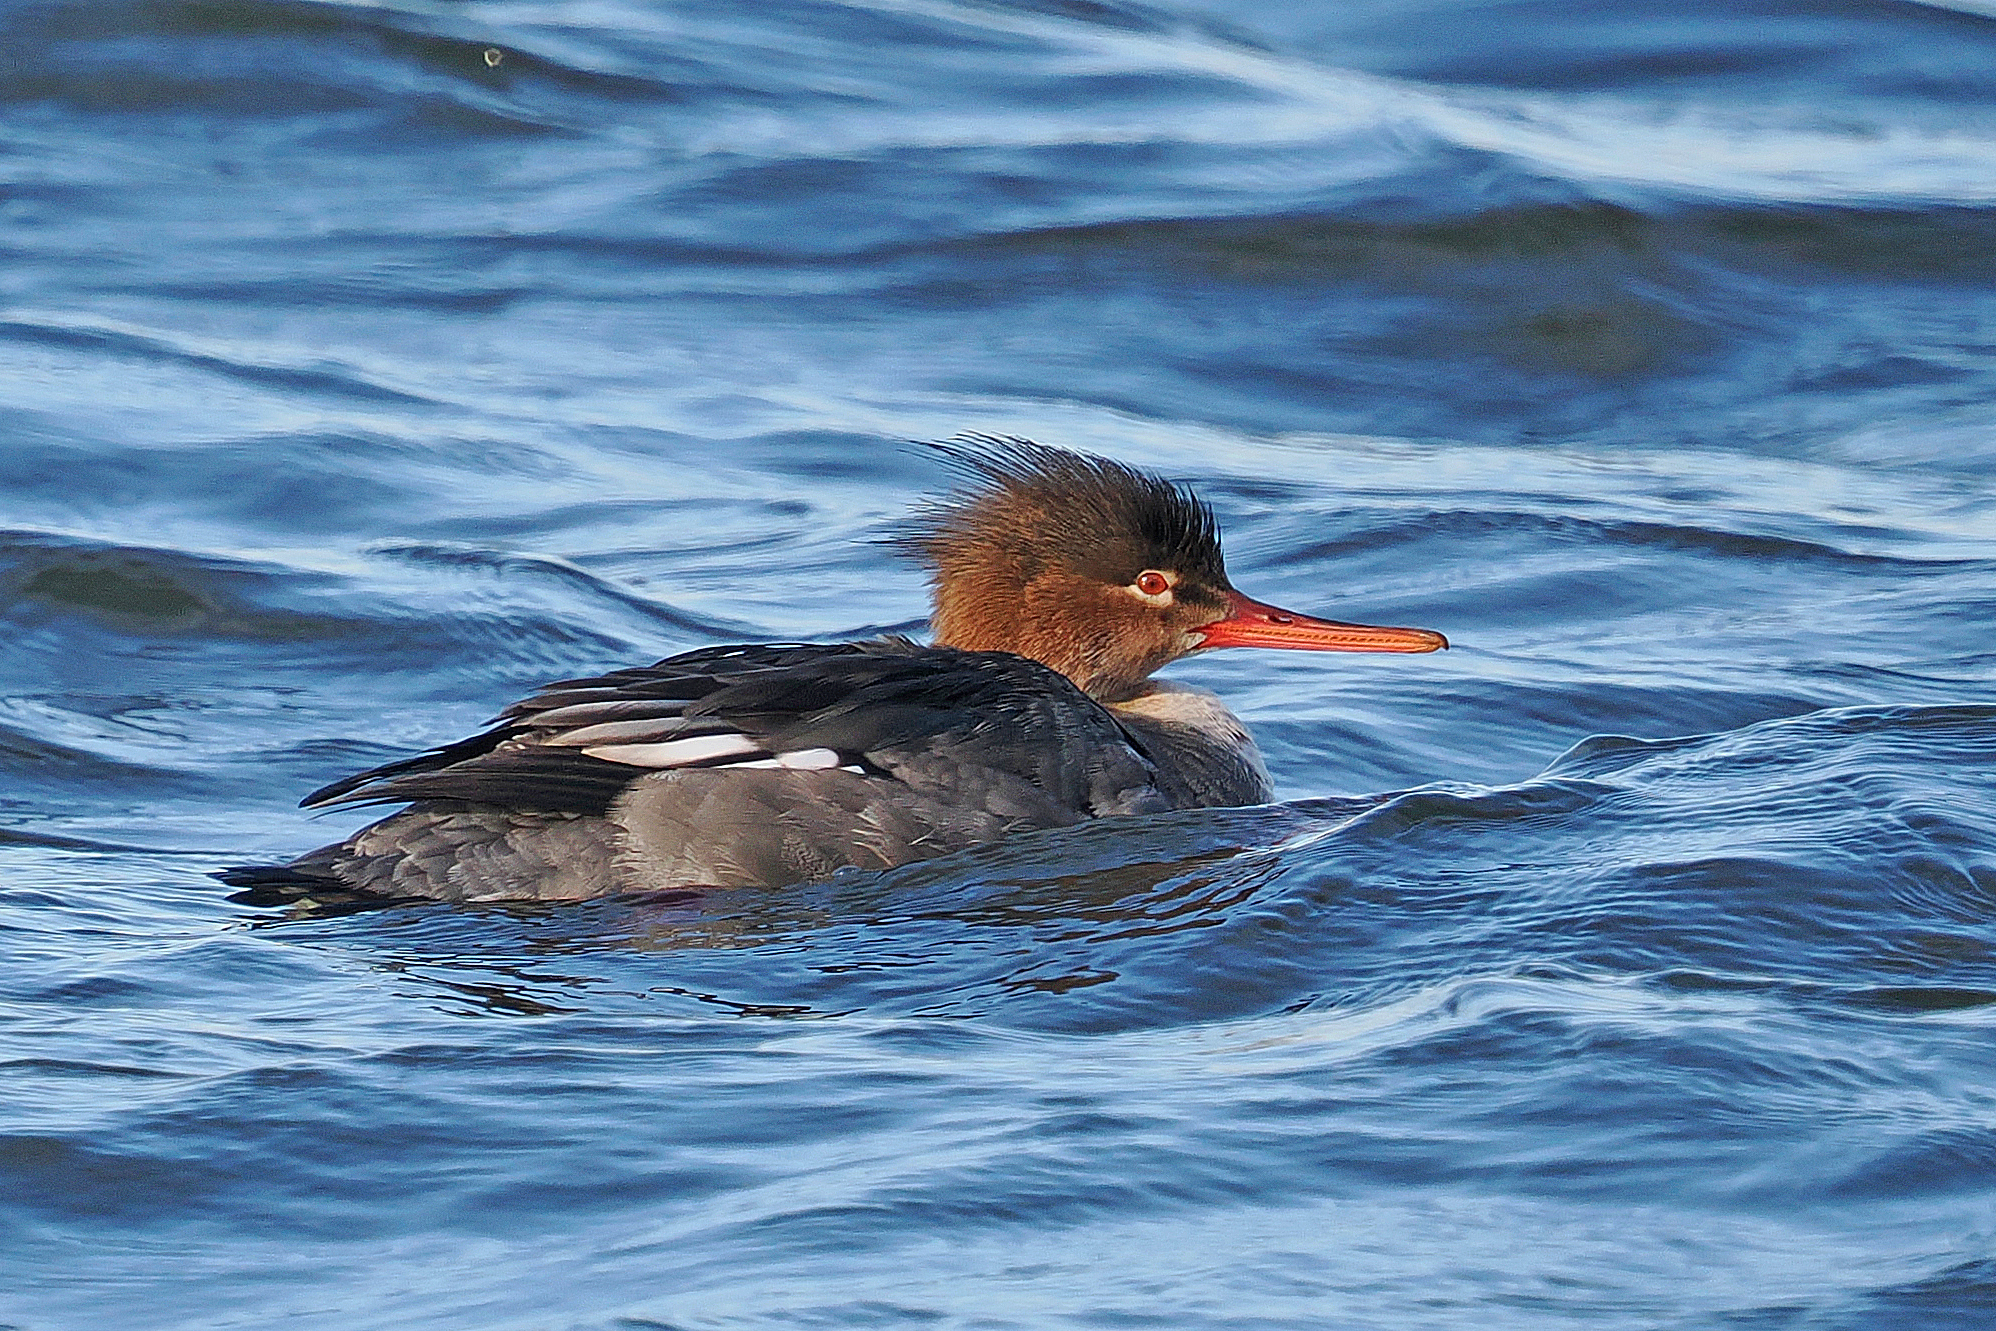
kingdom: Animalia
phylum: Chordata
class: Aves
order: Anseriformes
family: Anatidae
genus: Mergus
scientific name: Mergus serrator
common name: Red-breasted merganser
